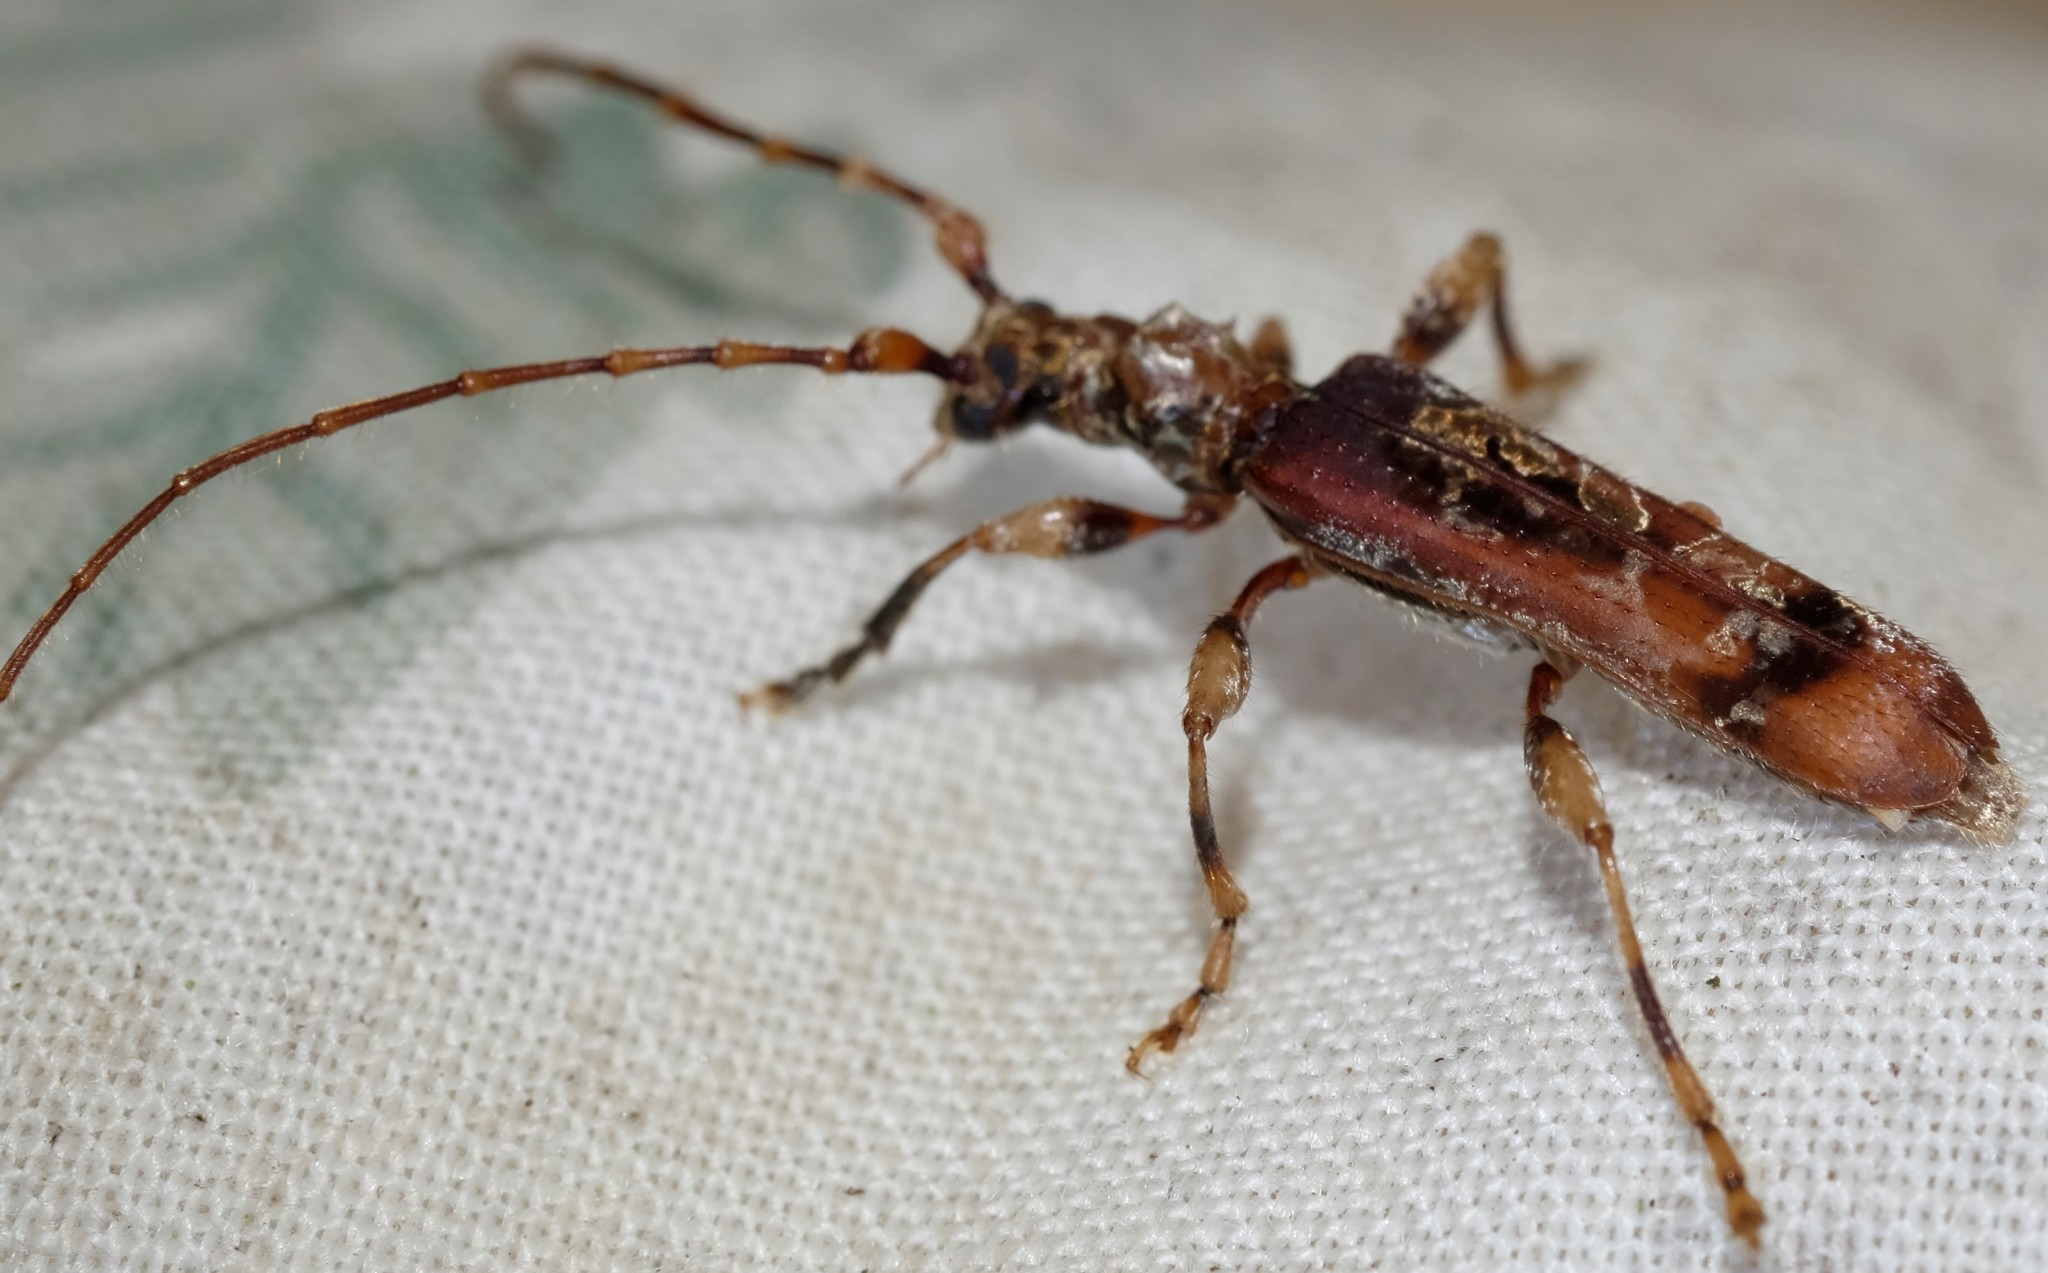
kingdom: Animalia
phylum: Arthropoda
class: Insecta
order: Coleoptera
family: Cerambycidae
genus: Tessaromma
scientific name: Tessaromma undatum
